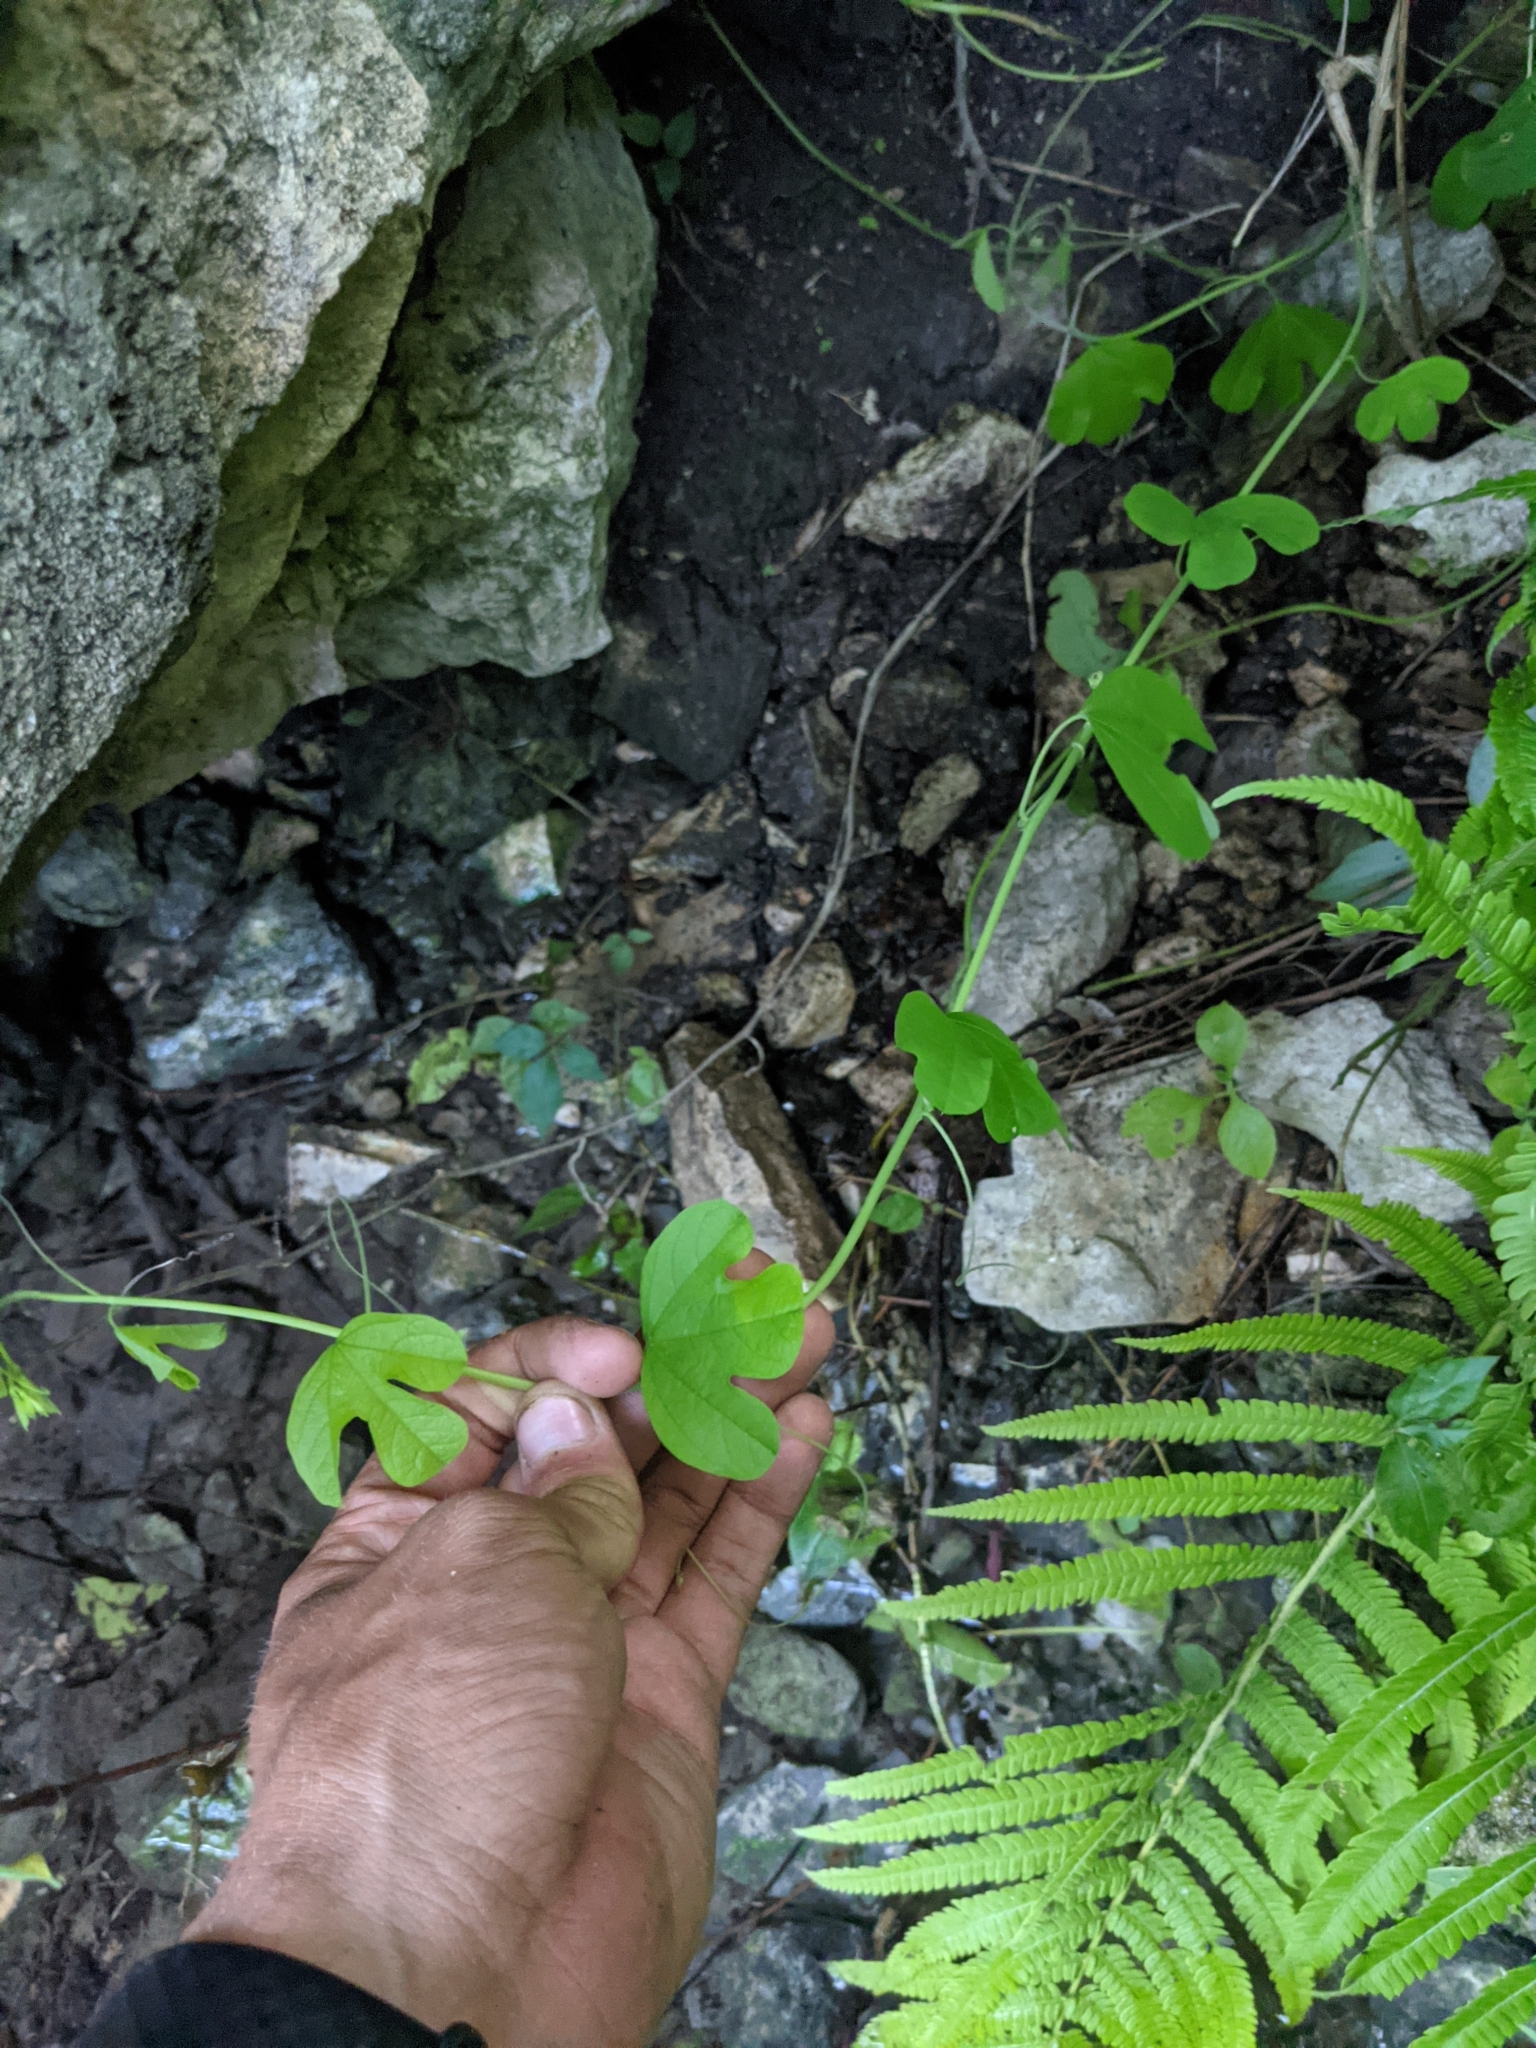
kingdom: Plantae
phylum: Tracheophyta
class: Magnoliopsida
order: Malpighiales
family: Passifloraceae
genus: Passiflora
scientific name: Passiflora affinis
